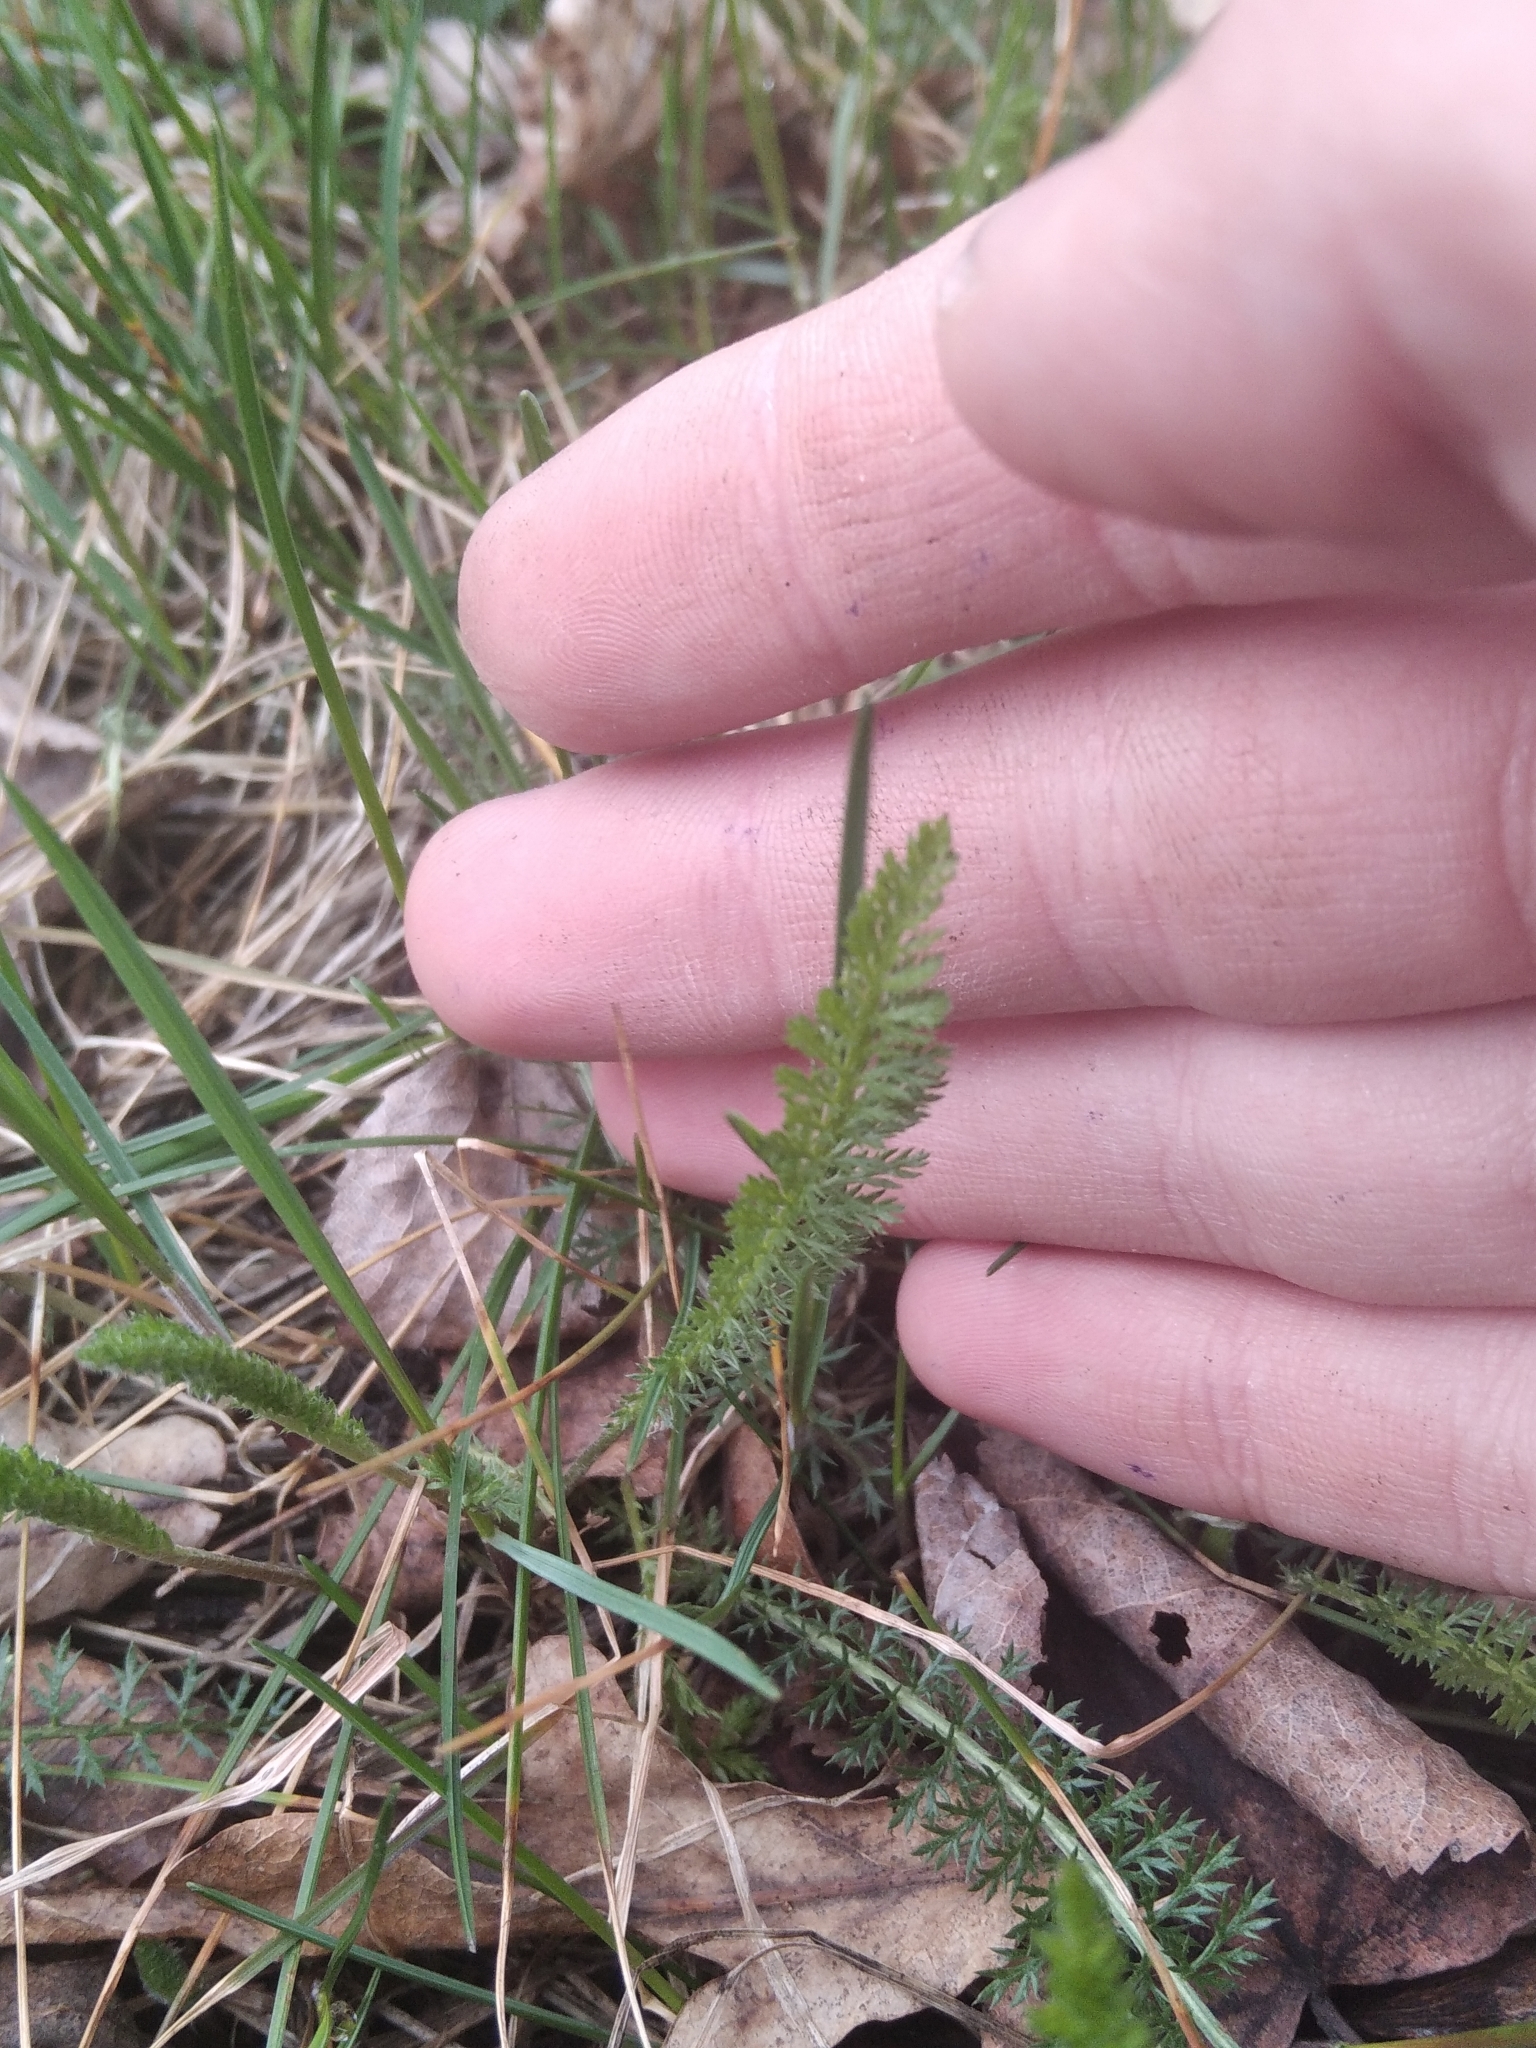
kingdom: Plantae
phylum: Tracheophyta
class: Magnoliopsida
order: Asterales
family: Asteraceae
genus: Achillea
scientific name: Achillea millefolium
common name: Yarrow
